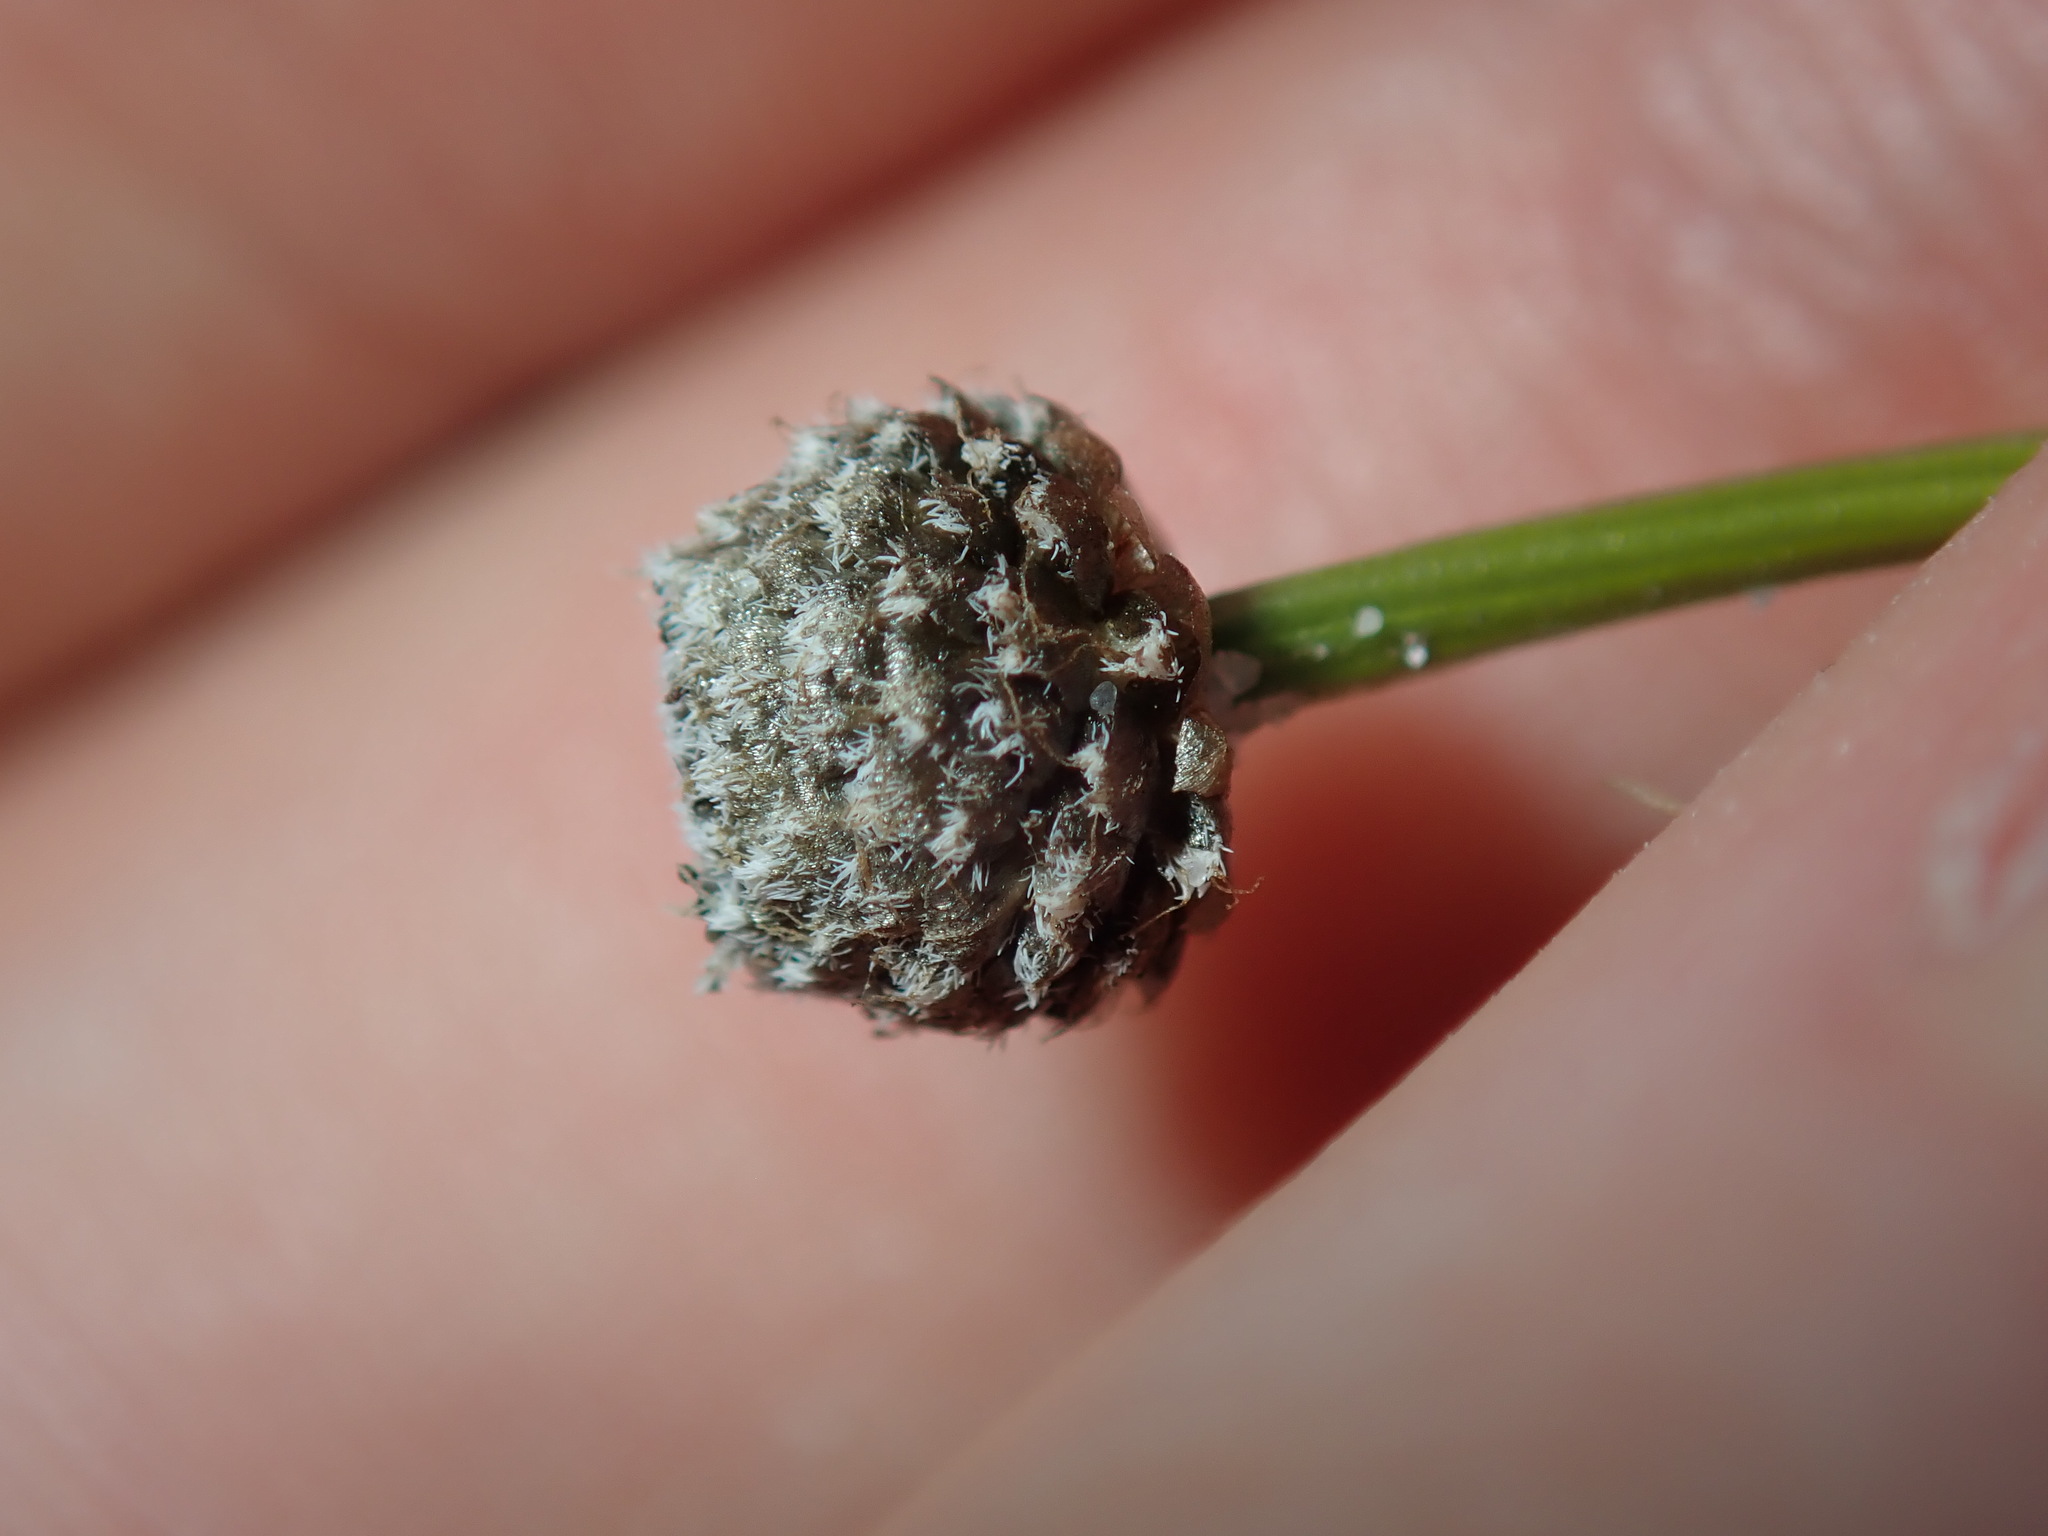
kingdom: Plantae
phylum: Tracheophyta
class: Liliopsida
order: Poales
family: Eriocaulaceae
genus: Eriocaulon
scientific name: Eriocaulon scariosum
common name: Rough pipewort
